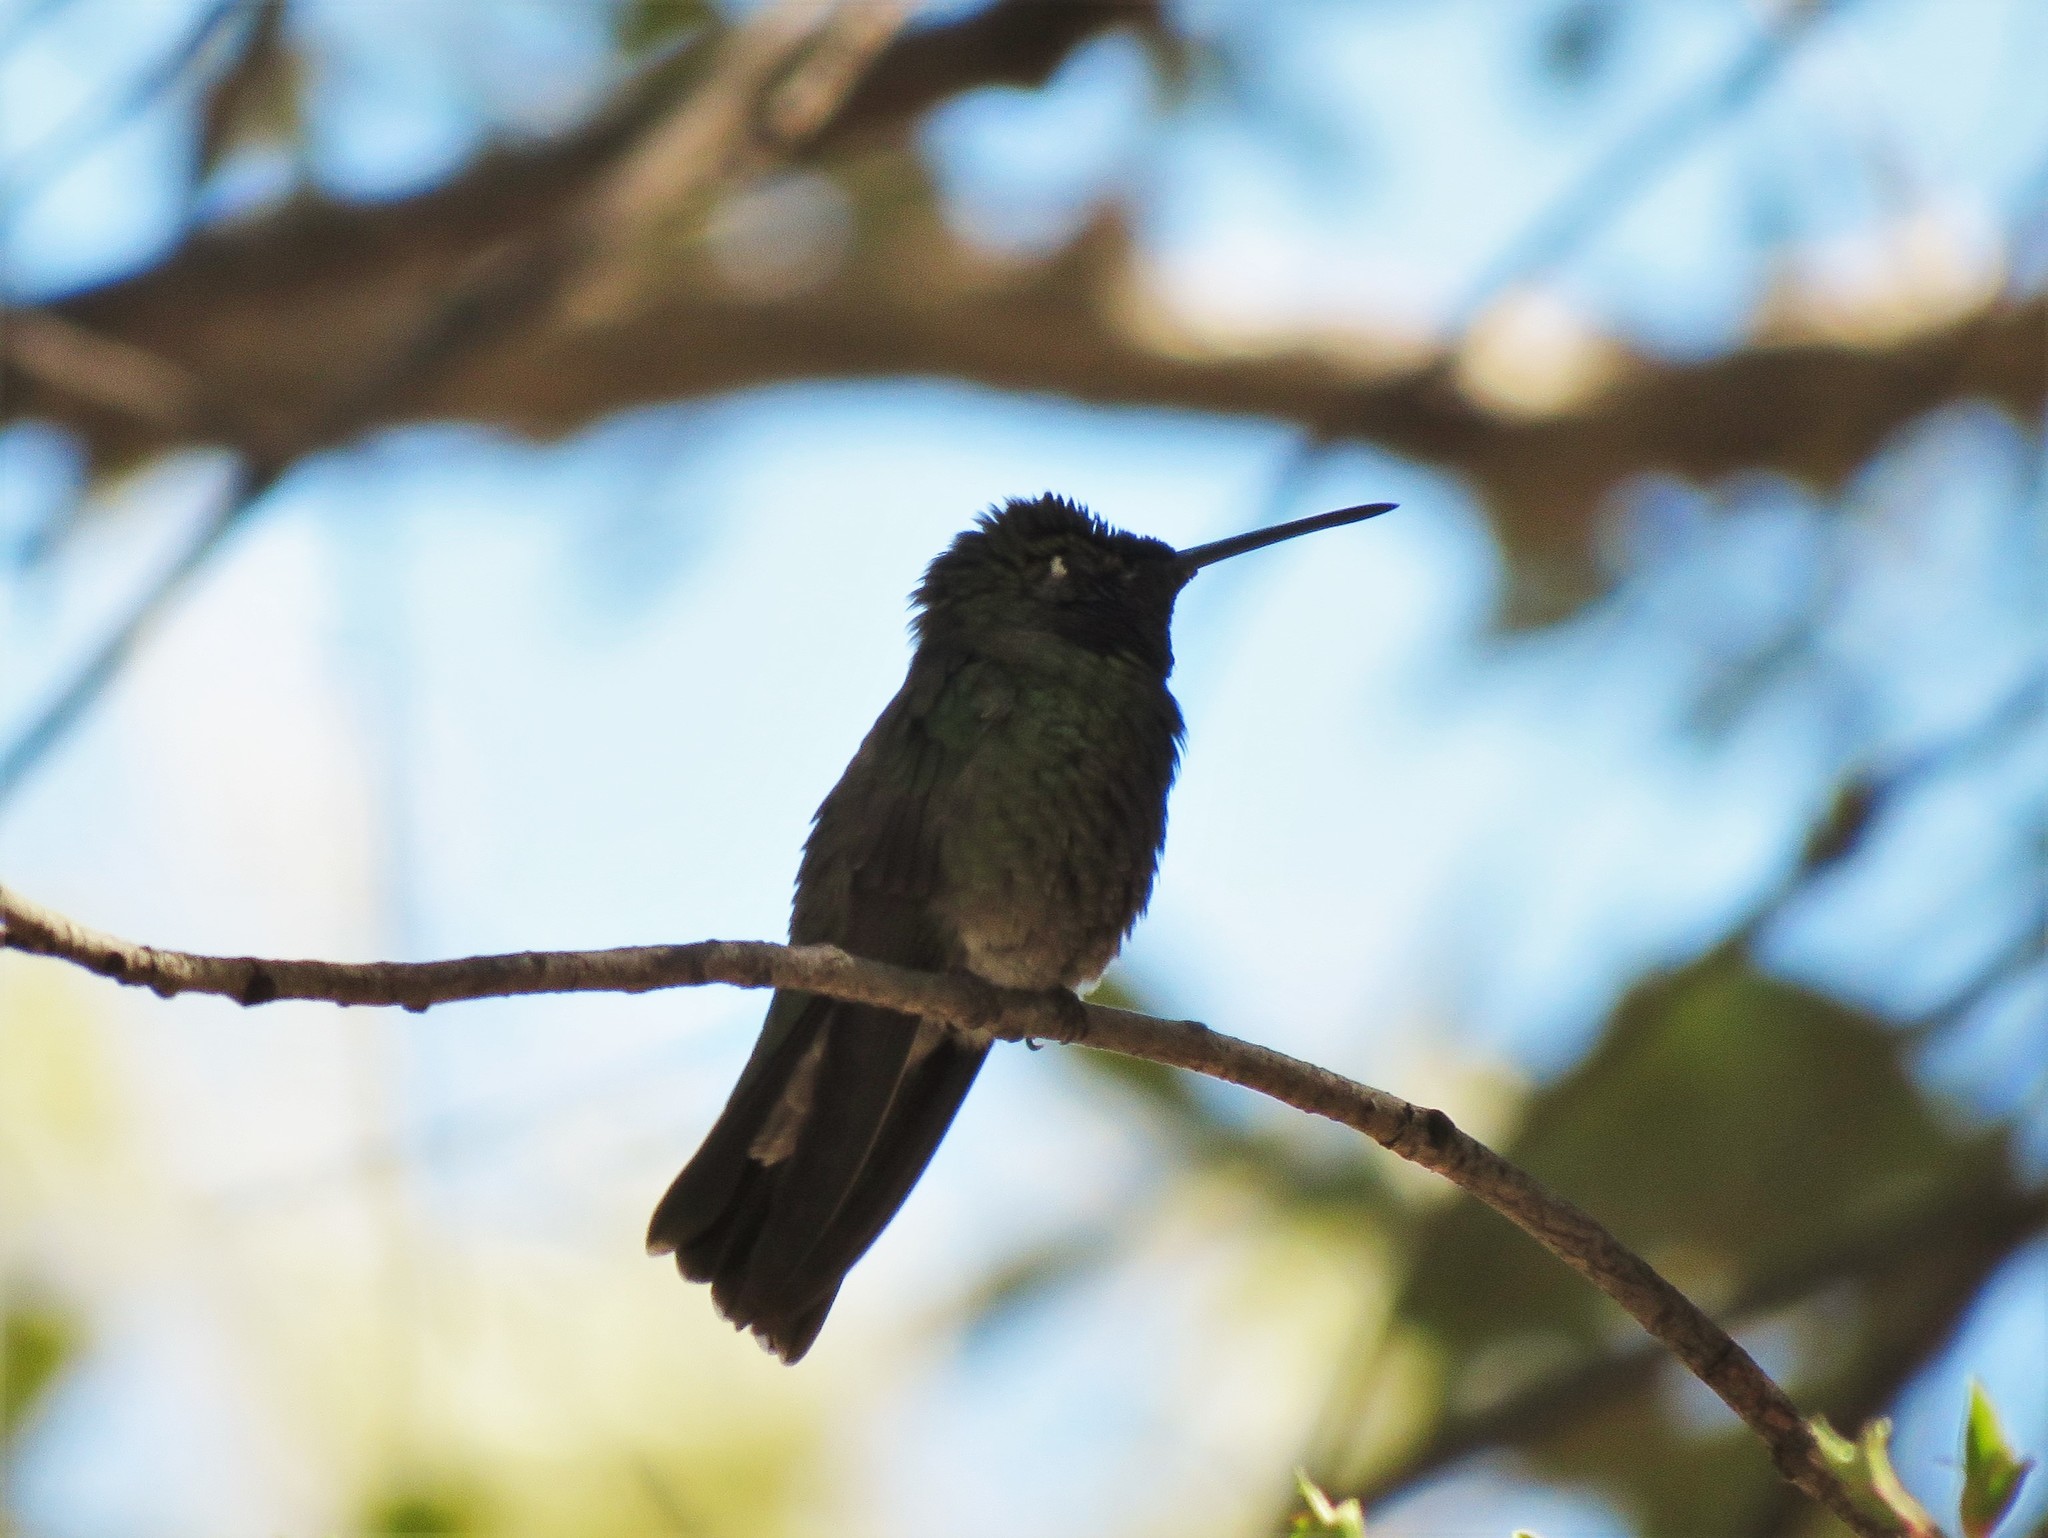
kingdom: Animalia
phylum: Chordata
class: Aves
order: Apodiformes
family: Trochilidae
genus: Eugenes
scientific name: Eugenes fulgens
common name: Magnificent hummingbird
